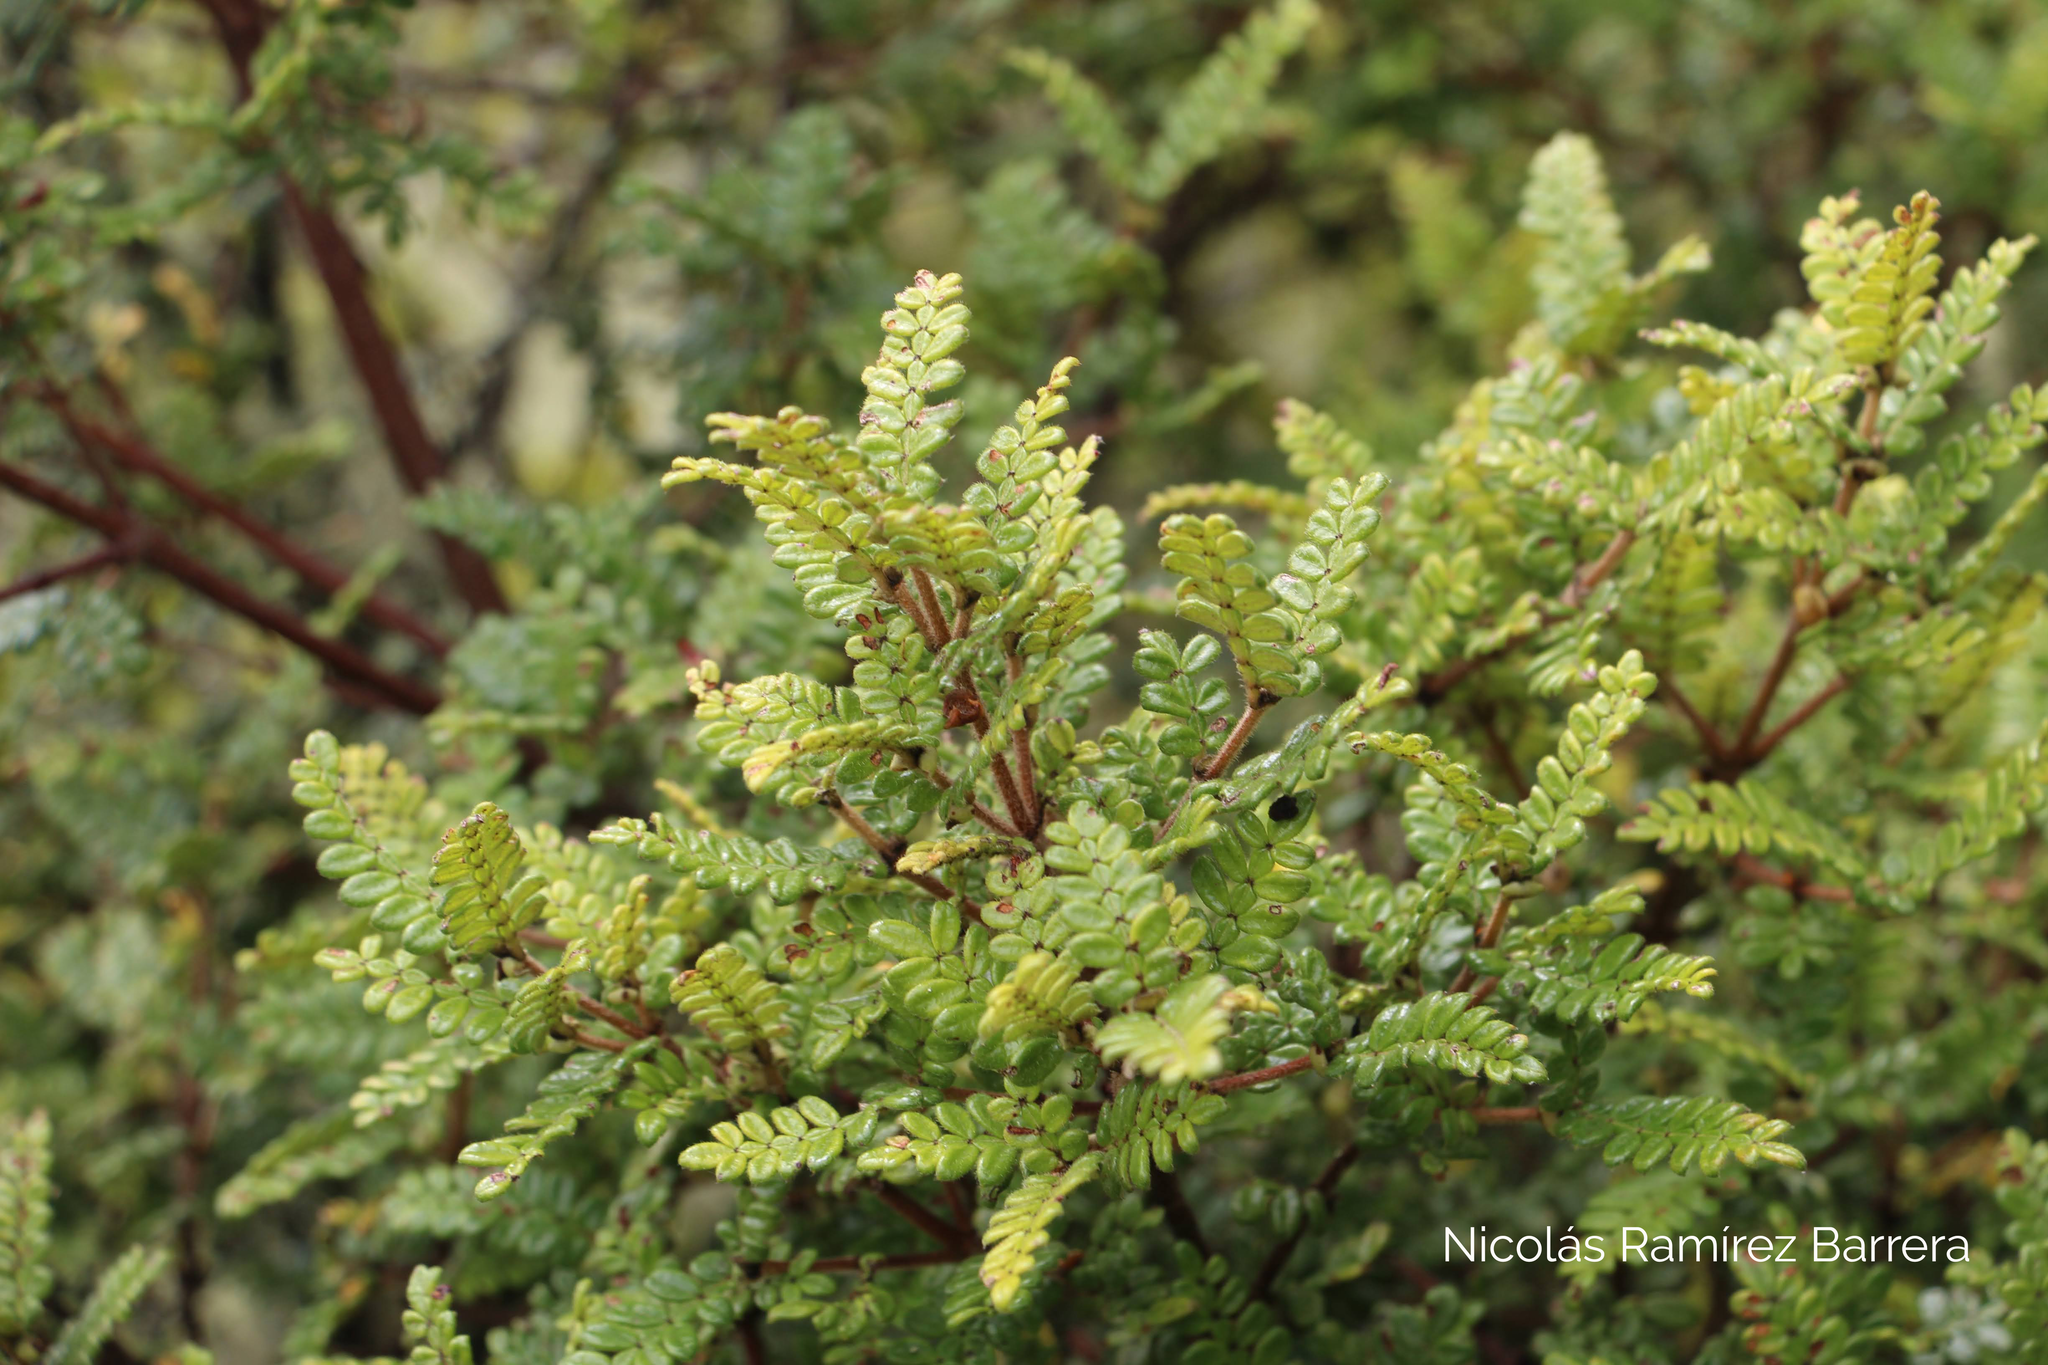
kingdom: Plantae
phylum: Tracheophyta
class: Magnoliopsida
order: Oxalidales
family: Cunoniaceae
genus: Weinmannia
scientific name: Weinmannia tomentosa
